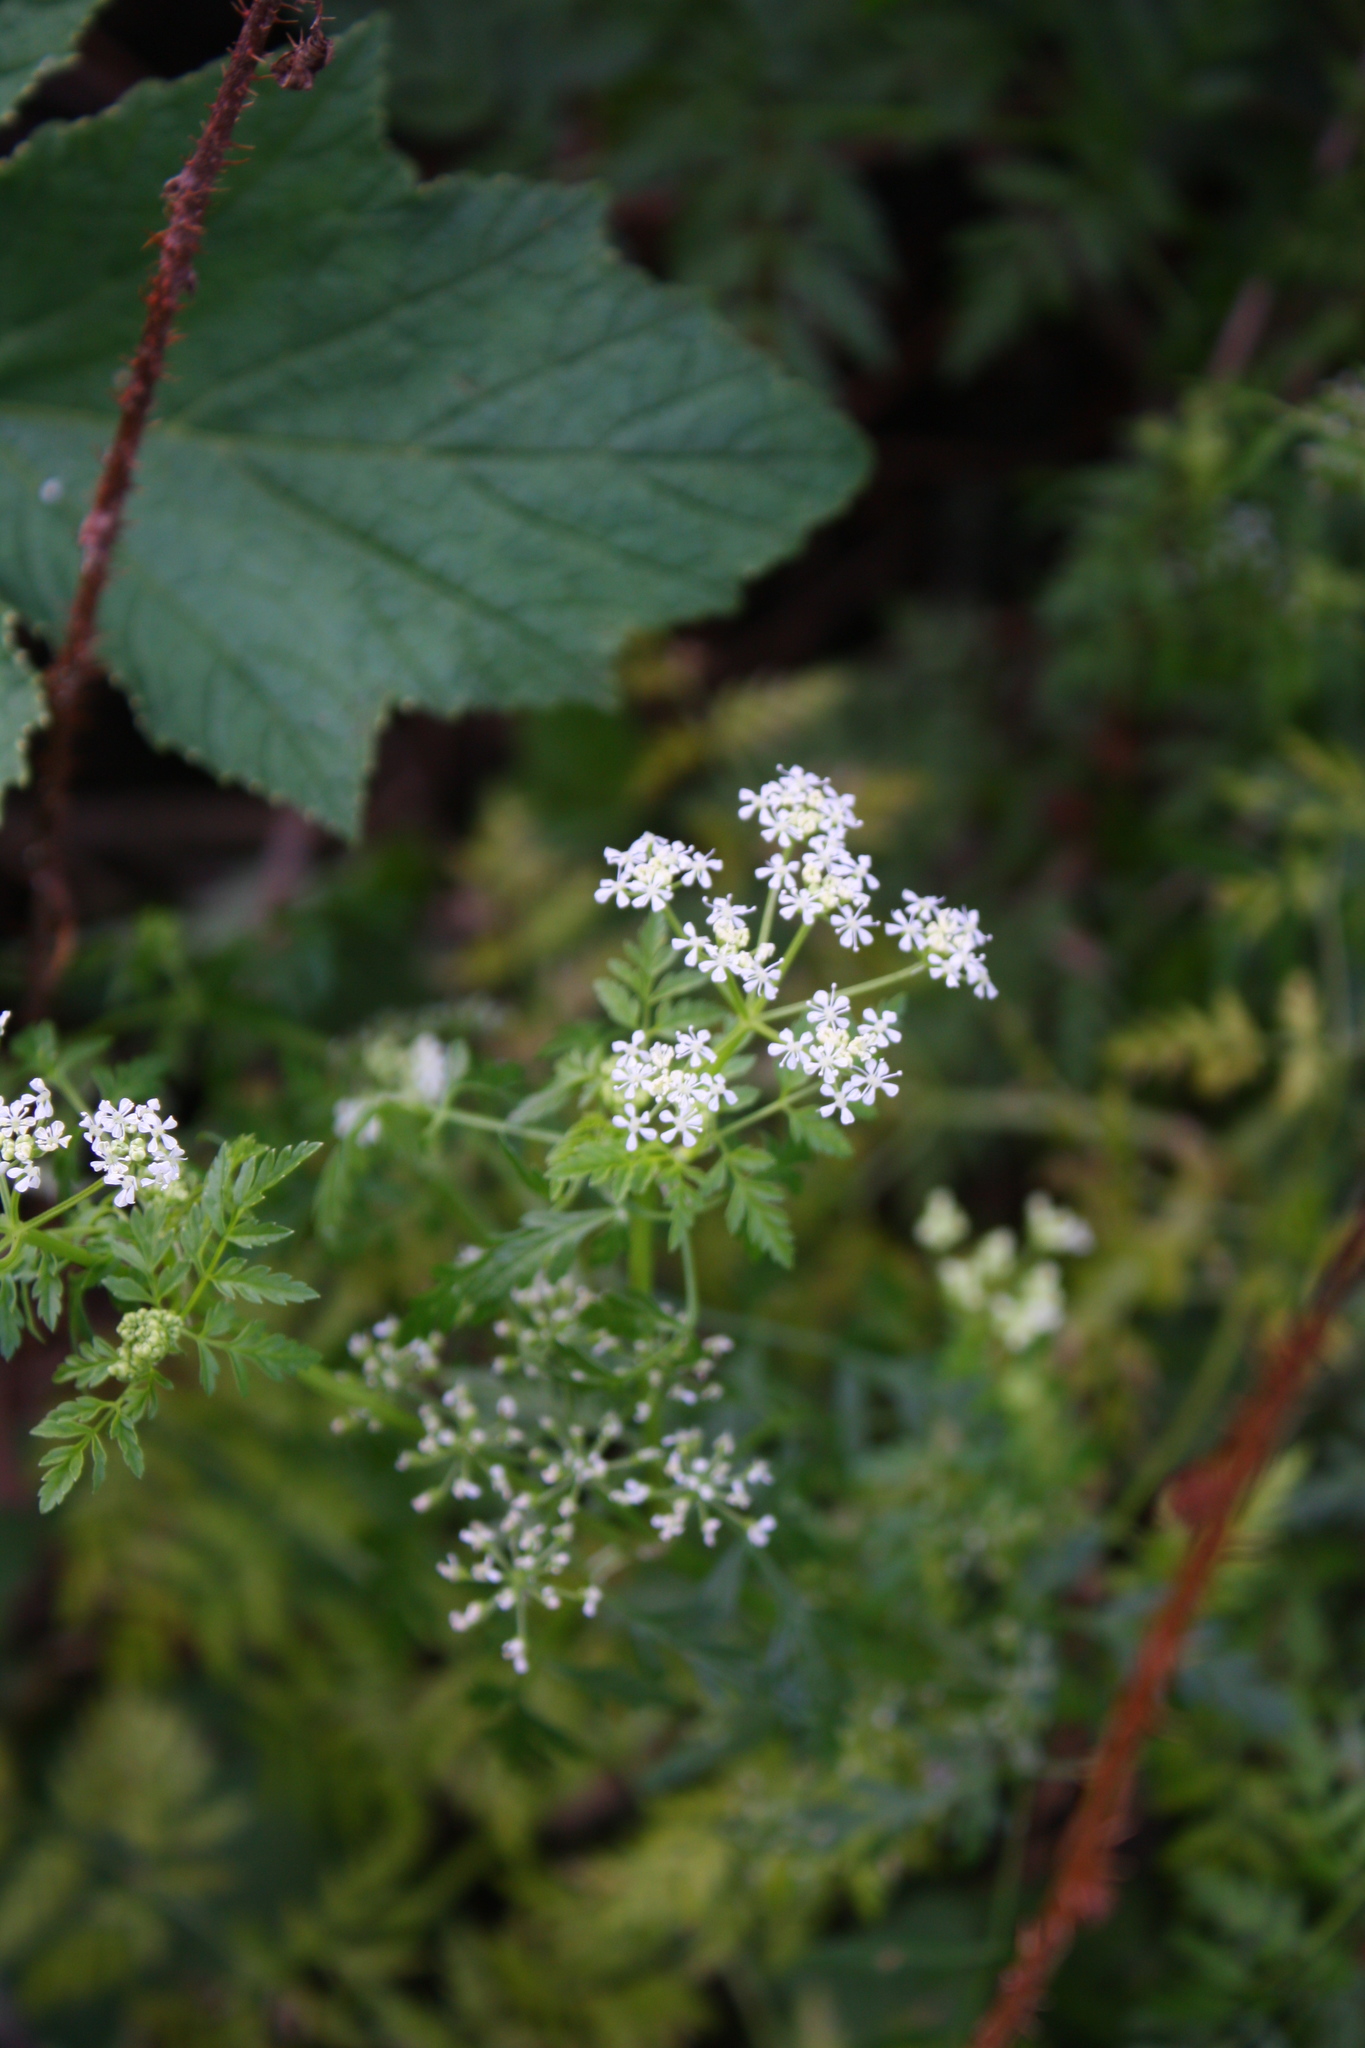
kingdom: Plantae
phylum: Tracheophyta
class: Magnoliopsida
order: Apiales
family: Apiaceae
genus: Conium
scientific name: Conium maculatum
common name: Hemlock
